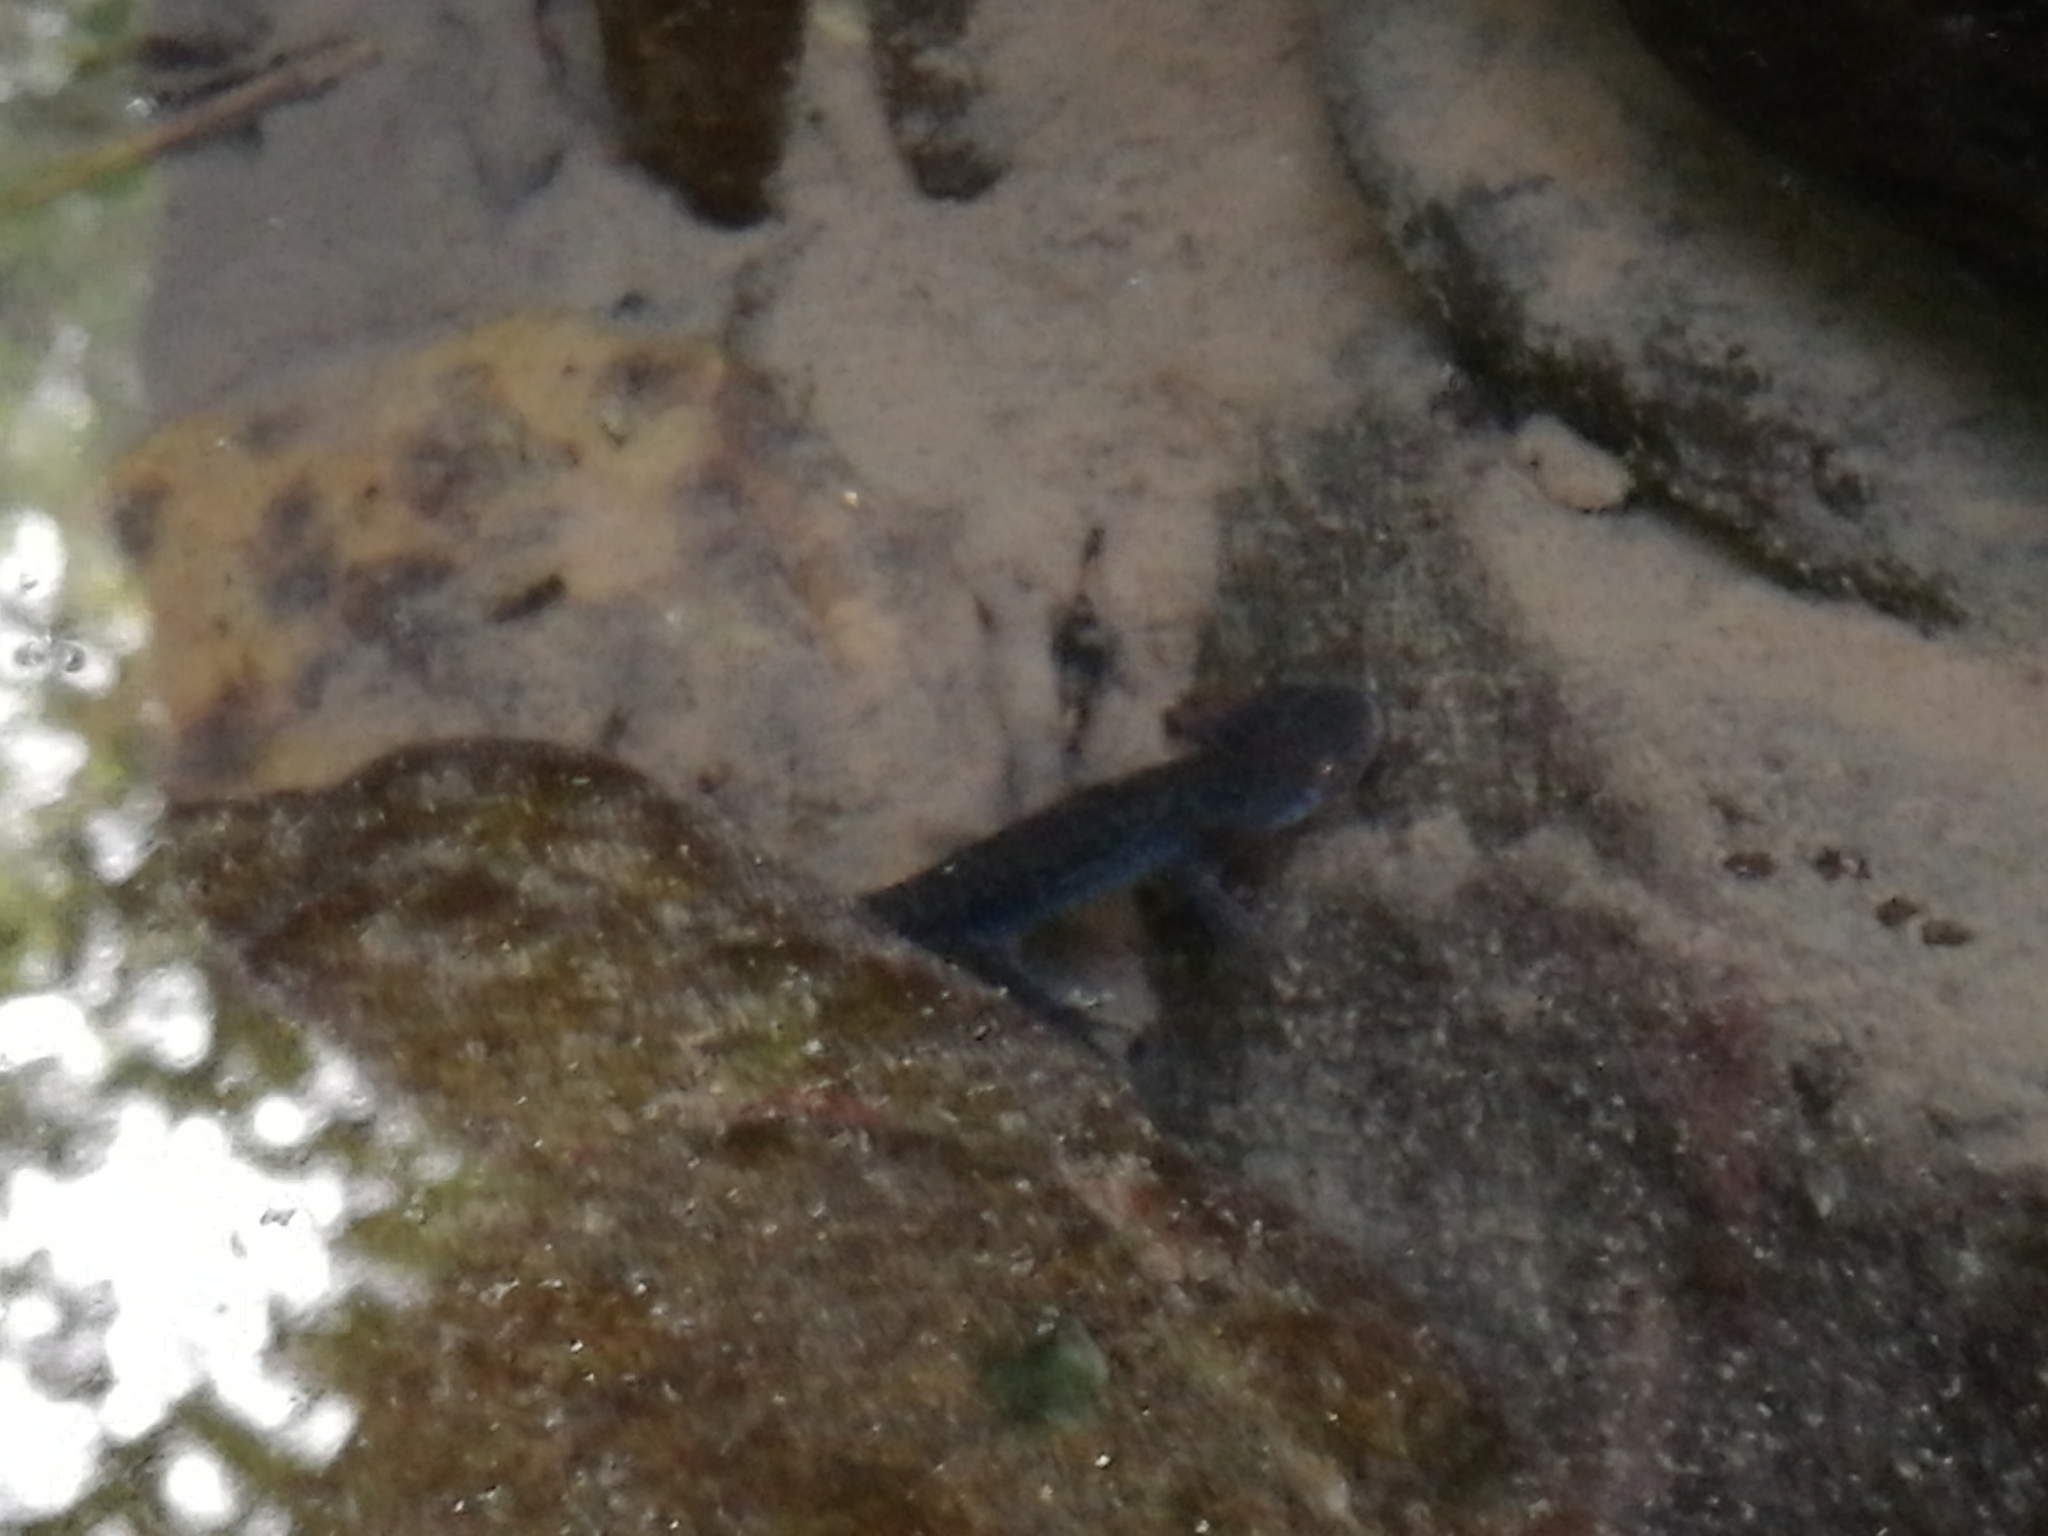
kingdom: Animalia
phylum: Chordata
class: Amphibia
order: Caudata
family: Salamandridae
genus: Ichthyosaura
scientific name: Ichthyosaura alpestris
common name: Alpine newt
